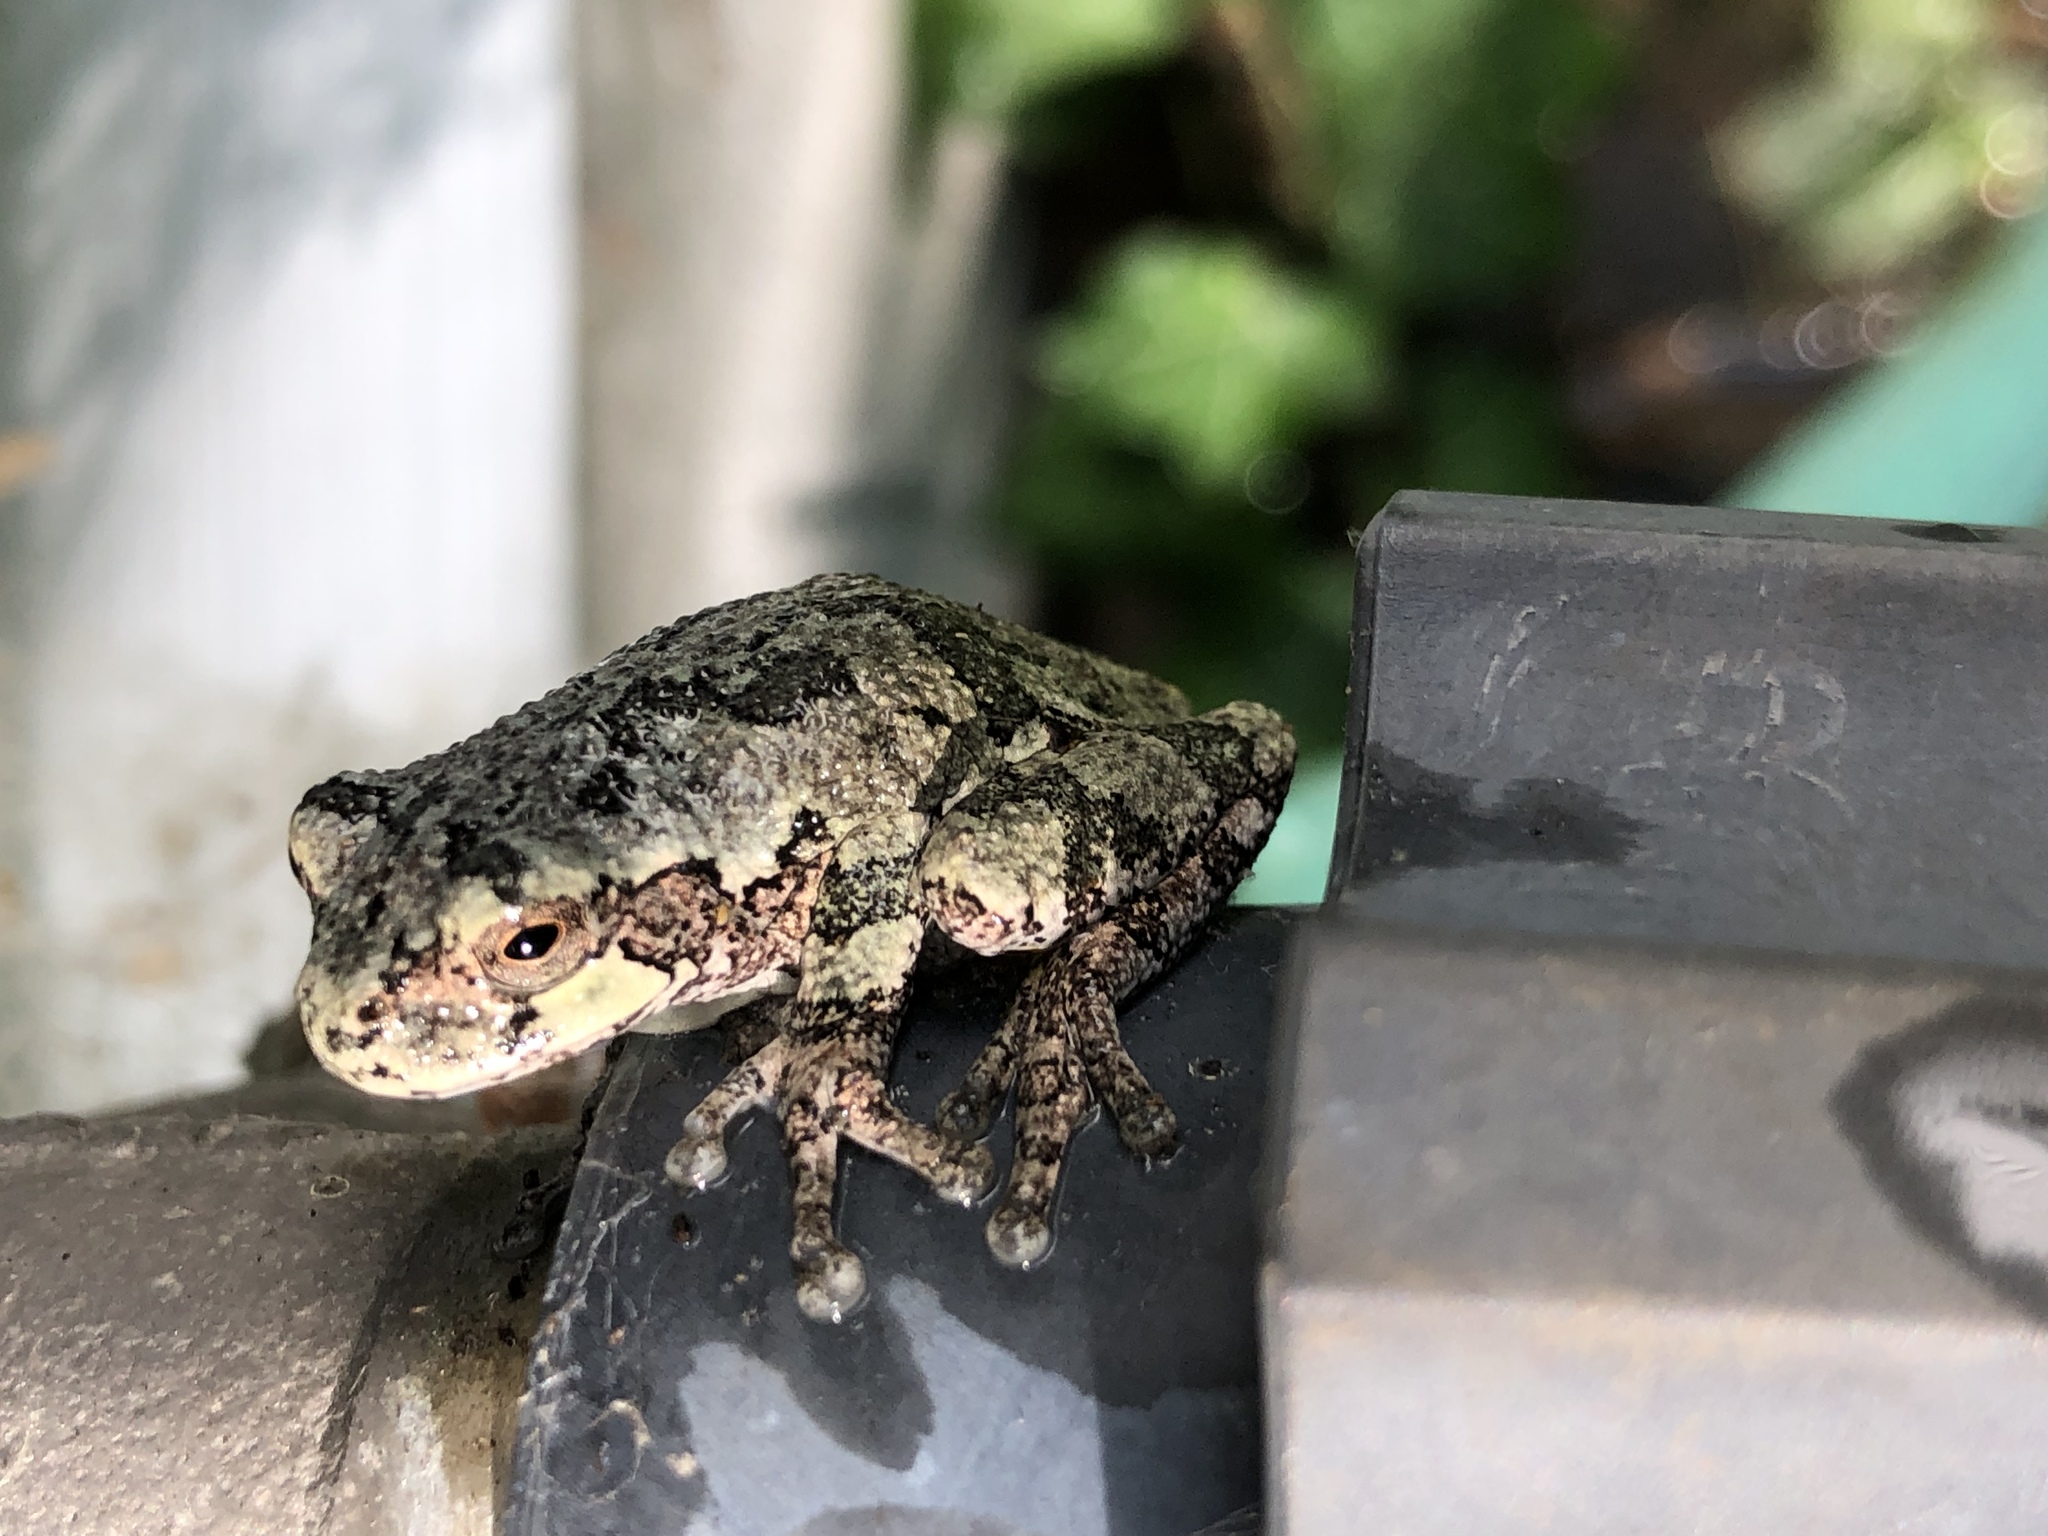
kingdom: Animalia
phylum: Chordata
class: Amphibia
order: Anura
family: Hylidae
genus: Hyla
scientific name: Hyla
